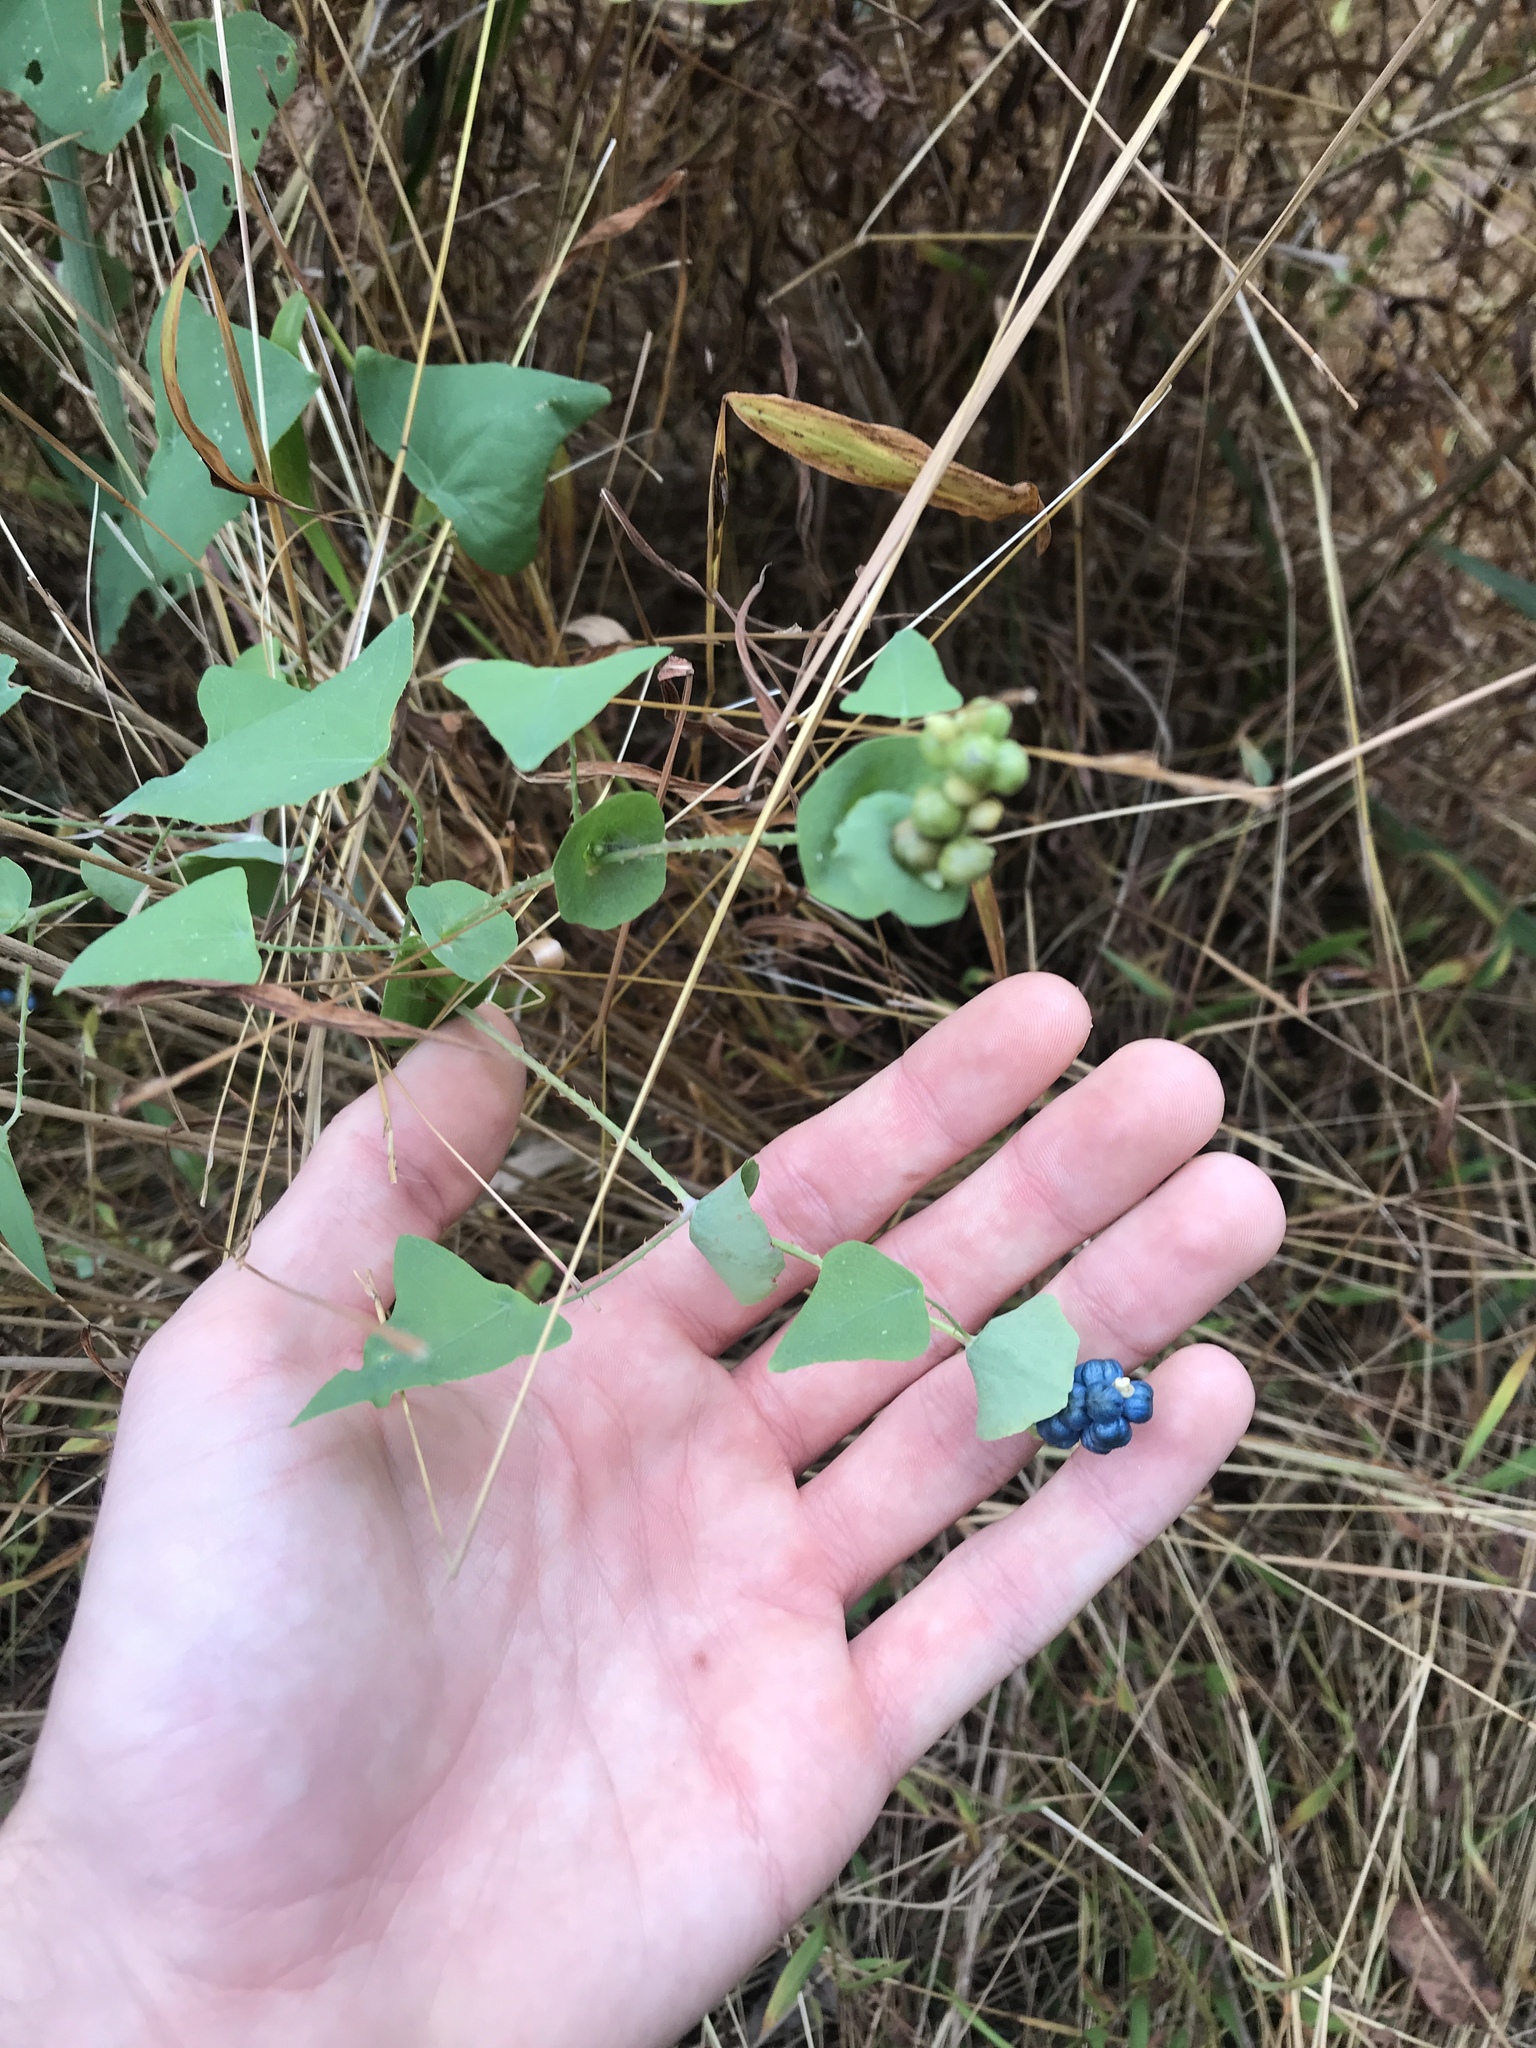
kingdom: Plantae
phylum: Tracheophyta
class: Magnoliopsida
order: Caryophyllales
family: Polygonaceae
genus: Persicaria
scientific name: Persicaria perfoliata
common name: Asiatic tearthumb
